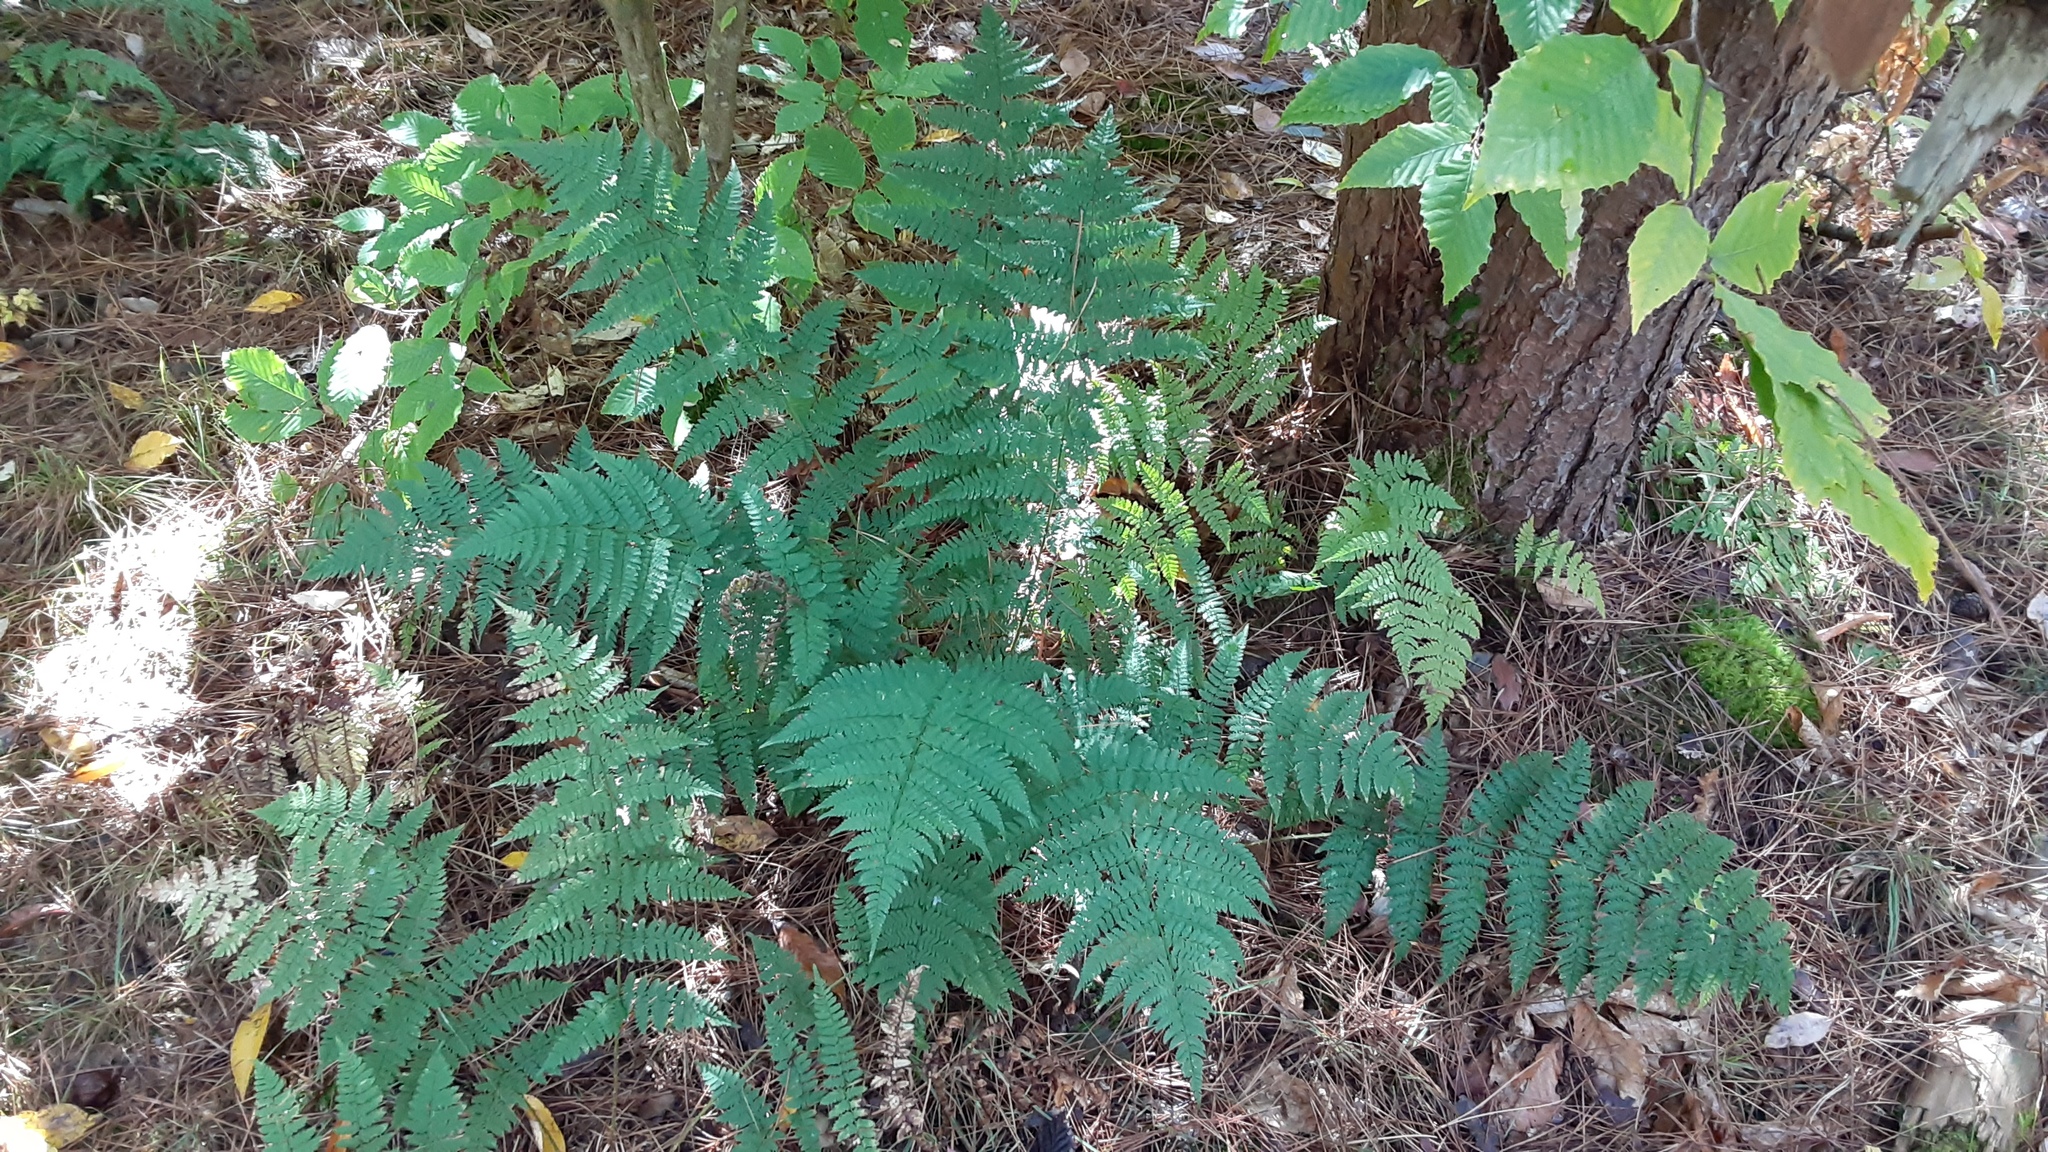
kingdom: Plantae
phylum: Tracheophyta
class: Polypodiopsida
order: Polypodiales
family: Dryopteridaceae
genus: Dryopteris
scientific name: Dryopteris intermedia
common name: Evergreen wood fern
